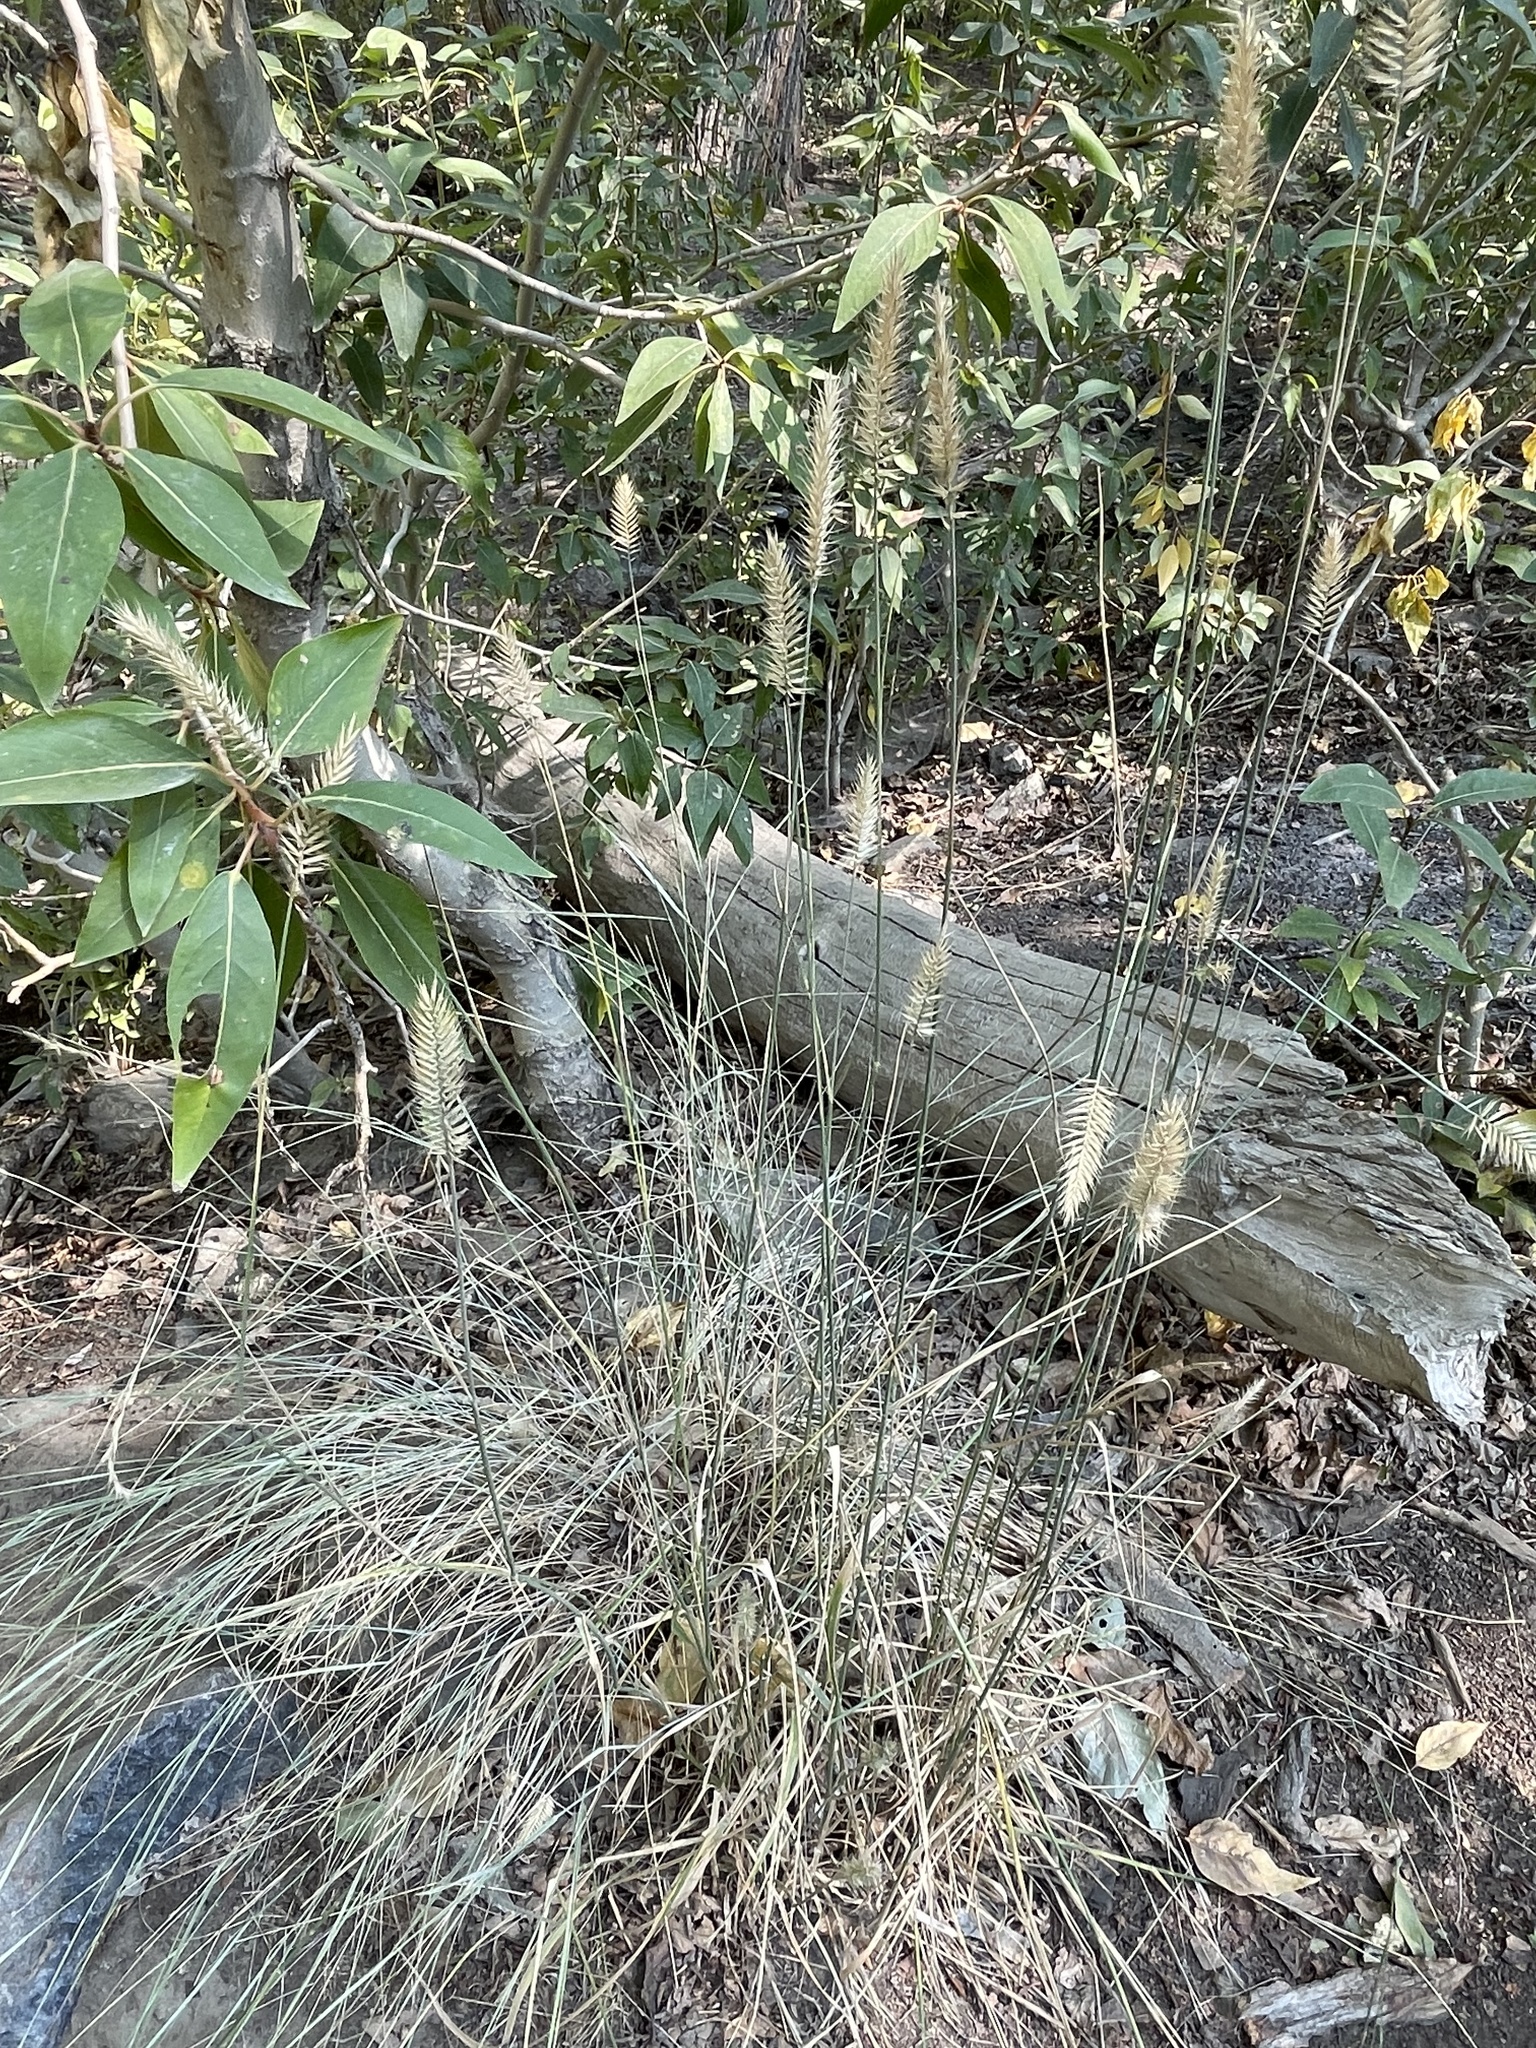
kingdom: Plantae
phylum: Tracheophyta
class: Liliopsida
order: Poales
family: Poaceae
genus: Agropyron
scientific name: Agropyron cristatum
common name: Crested wheatgrass
